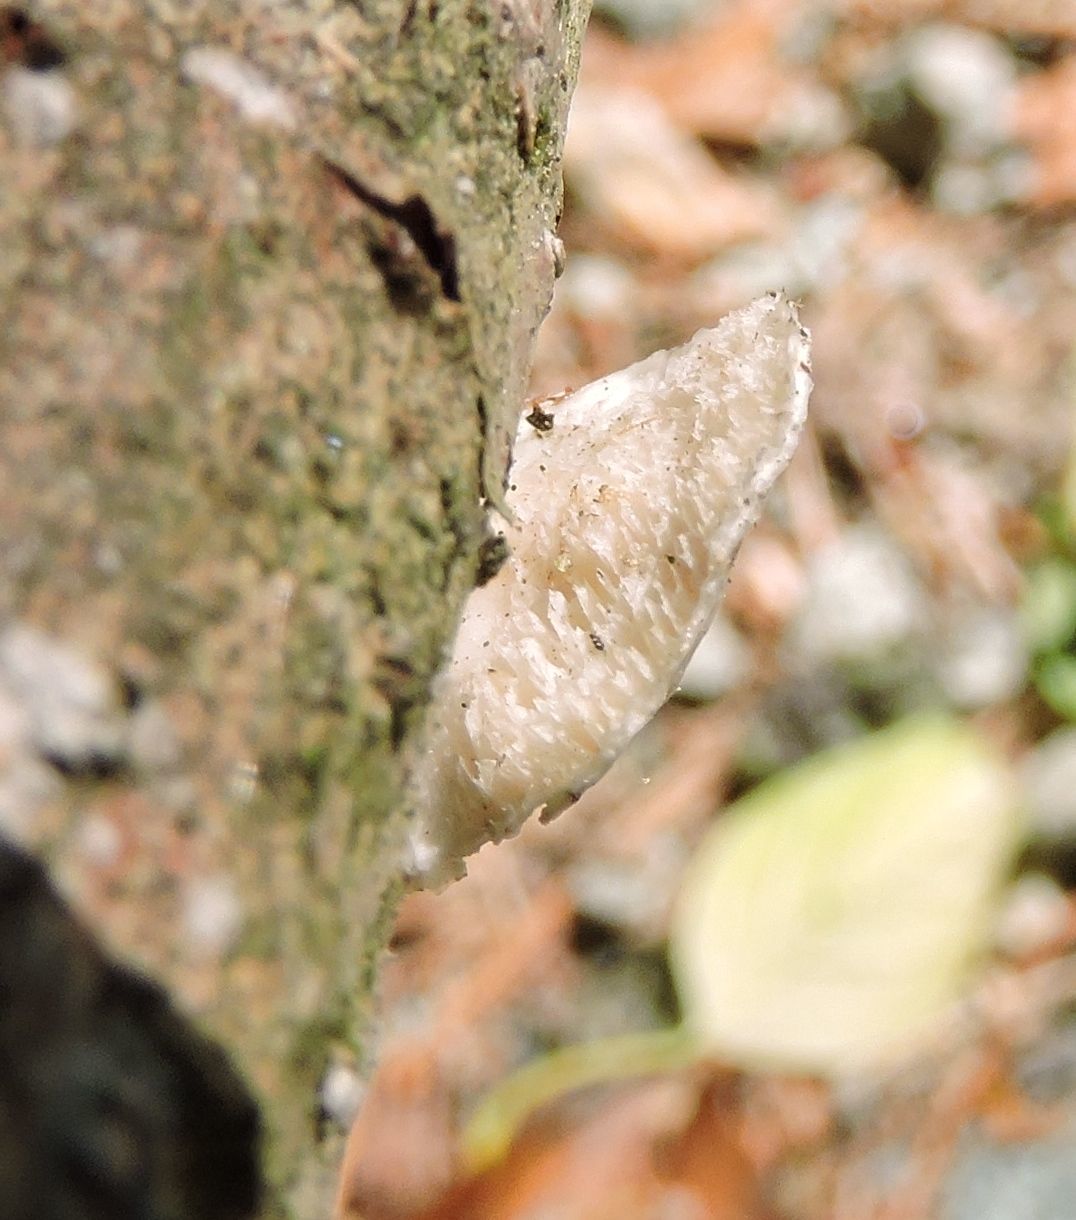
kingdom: Fungi
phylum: Basidiomycota
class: Agaricomycetes
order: Polyporales
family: Polyporaceae
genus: Poronidulus
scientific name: Poronidulus conchifer
